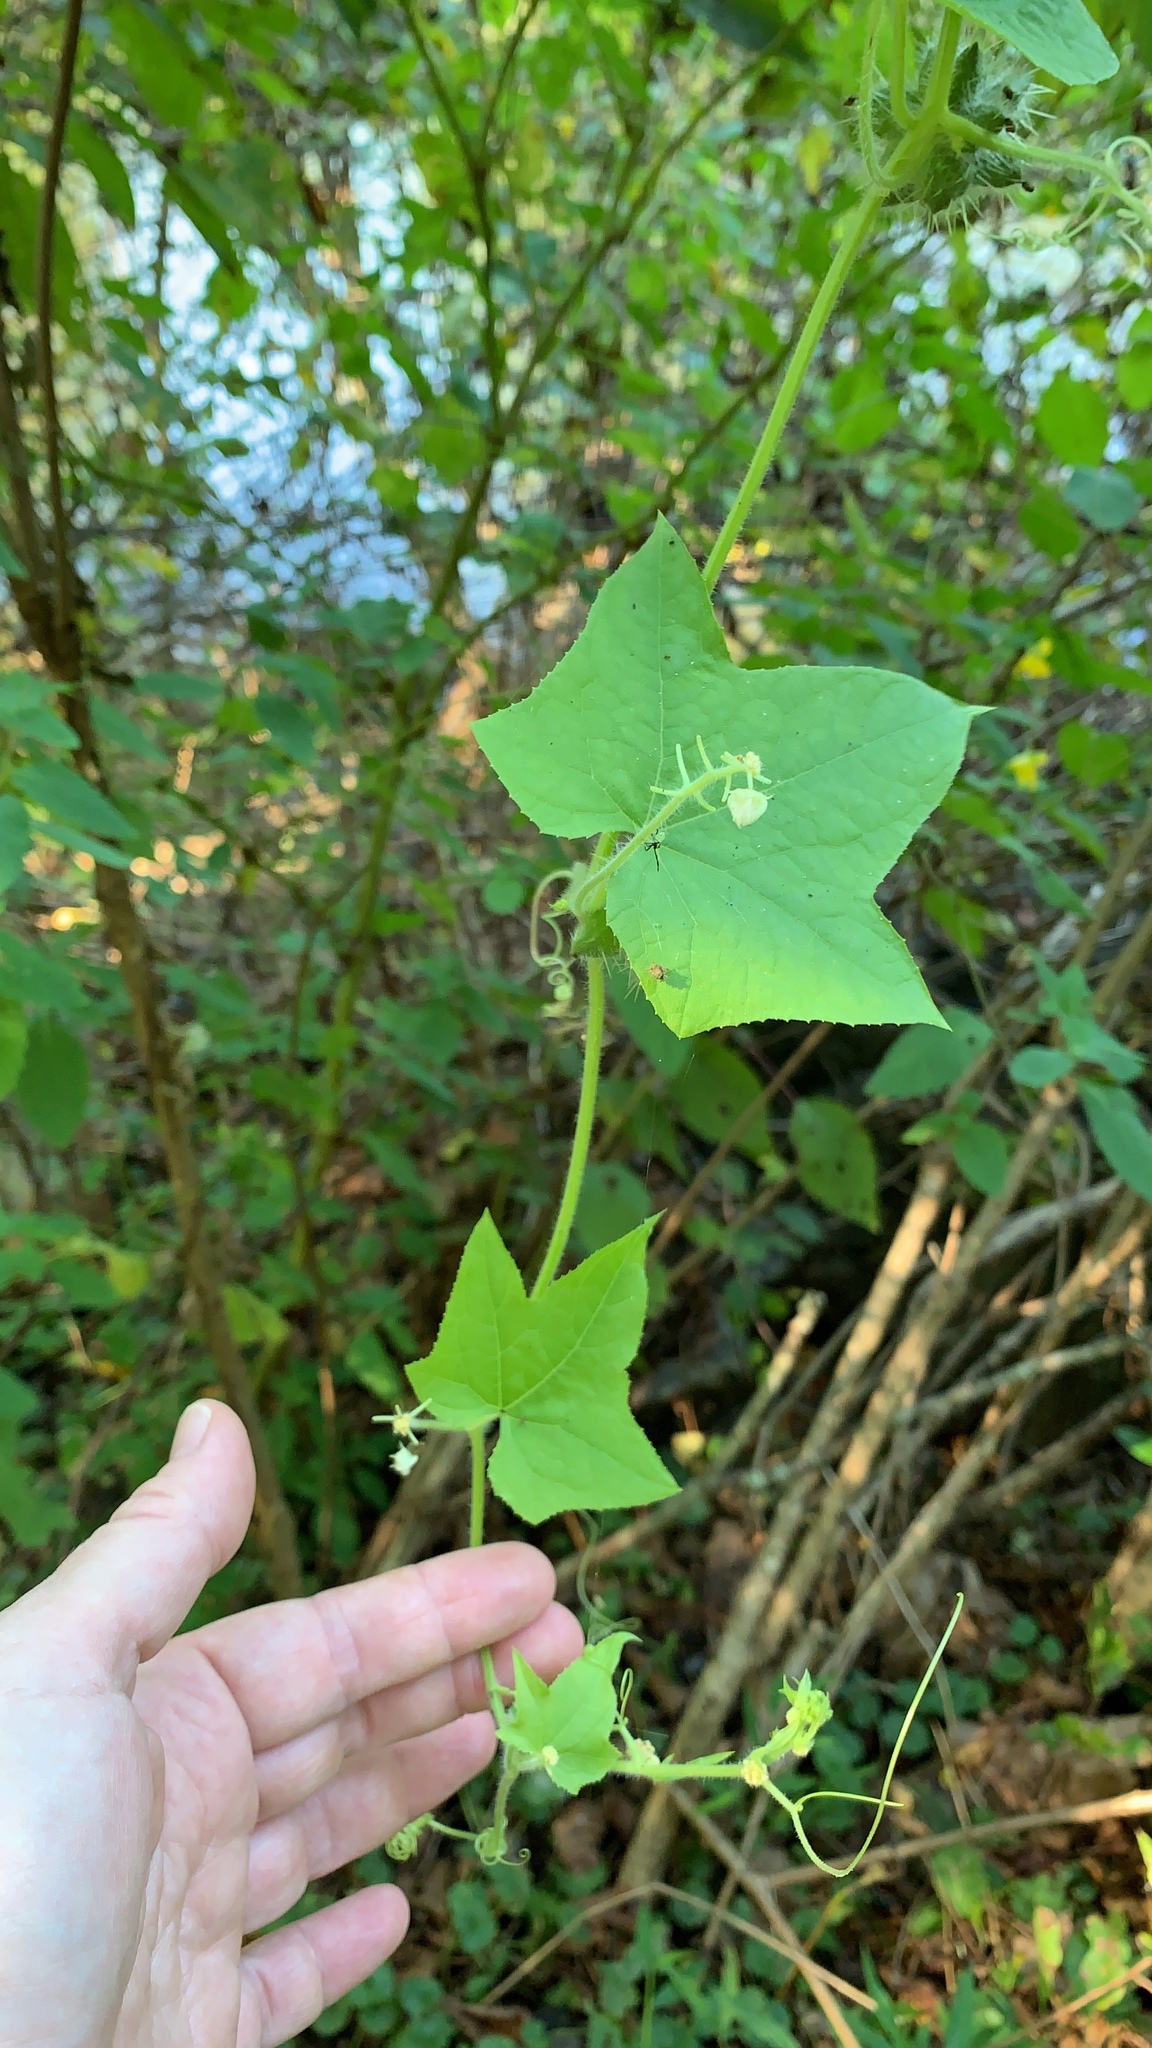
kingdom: Plantae
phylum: Tracheophyta
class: Magnoliopsida
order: Cucurbitales
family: Cucurbitaceae
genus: Sicyos
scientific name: Sicyos angulatus
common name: Angled burr cucumber
